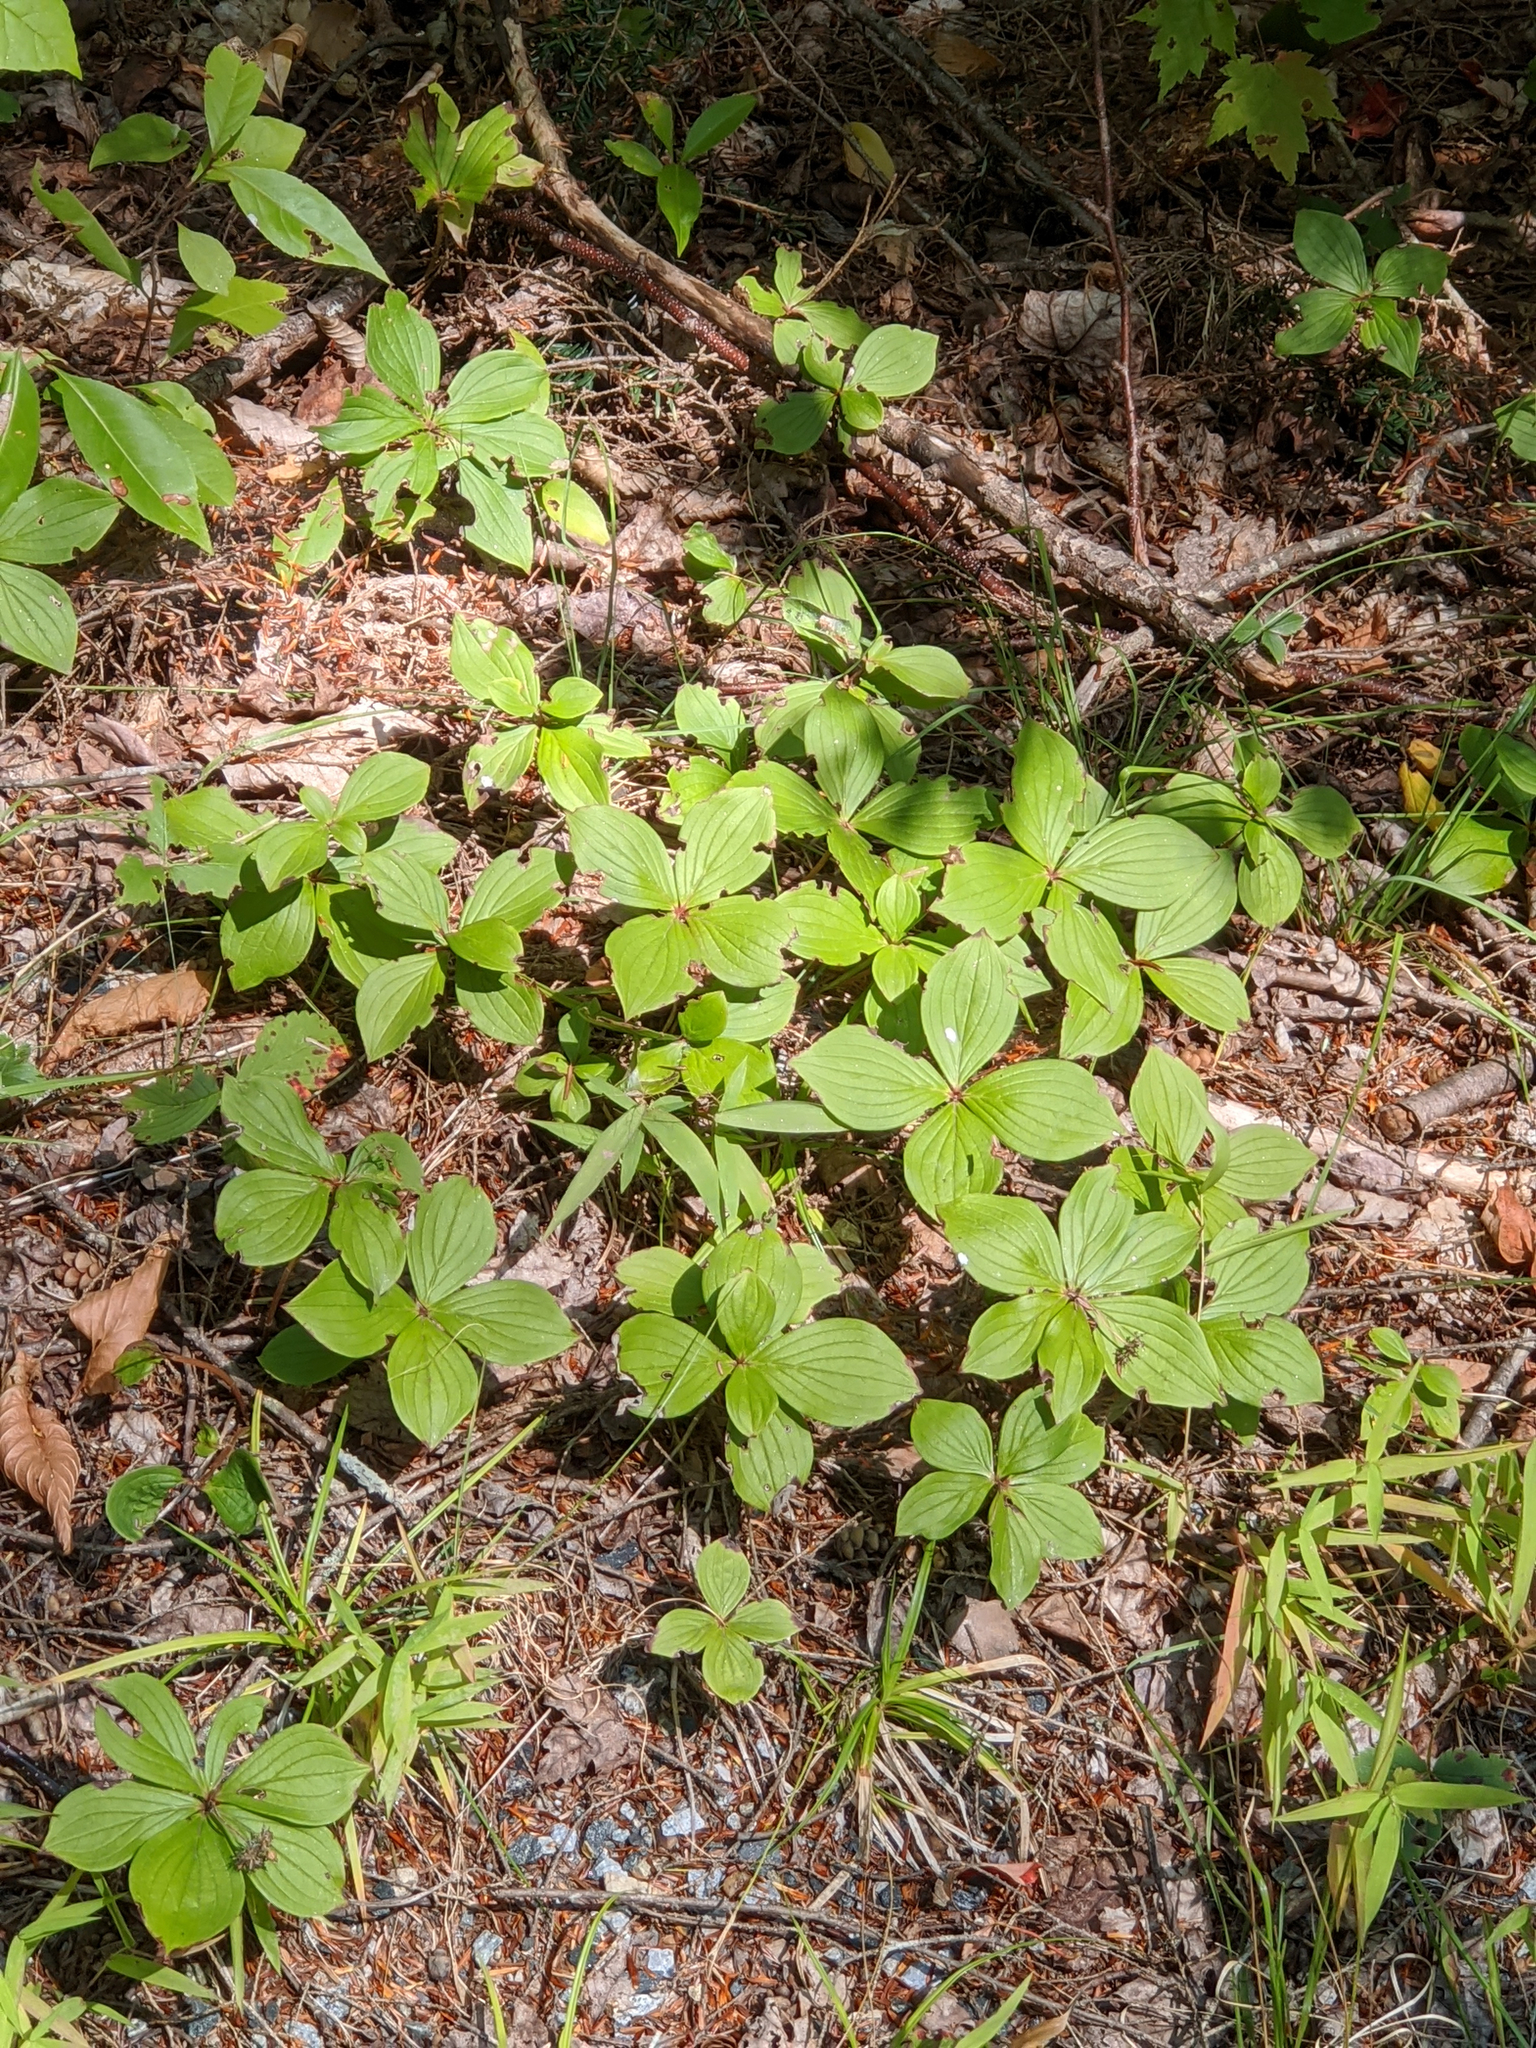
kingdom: Plantae
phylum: Tracheophyta
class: Magnoliopsida
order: Cornales
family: Cornaceae
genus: Cornus
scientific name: Cornus canadensis
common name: Creeping dogwood
